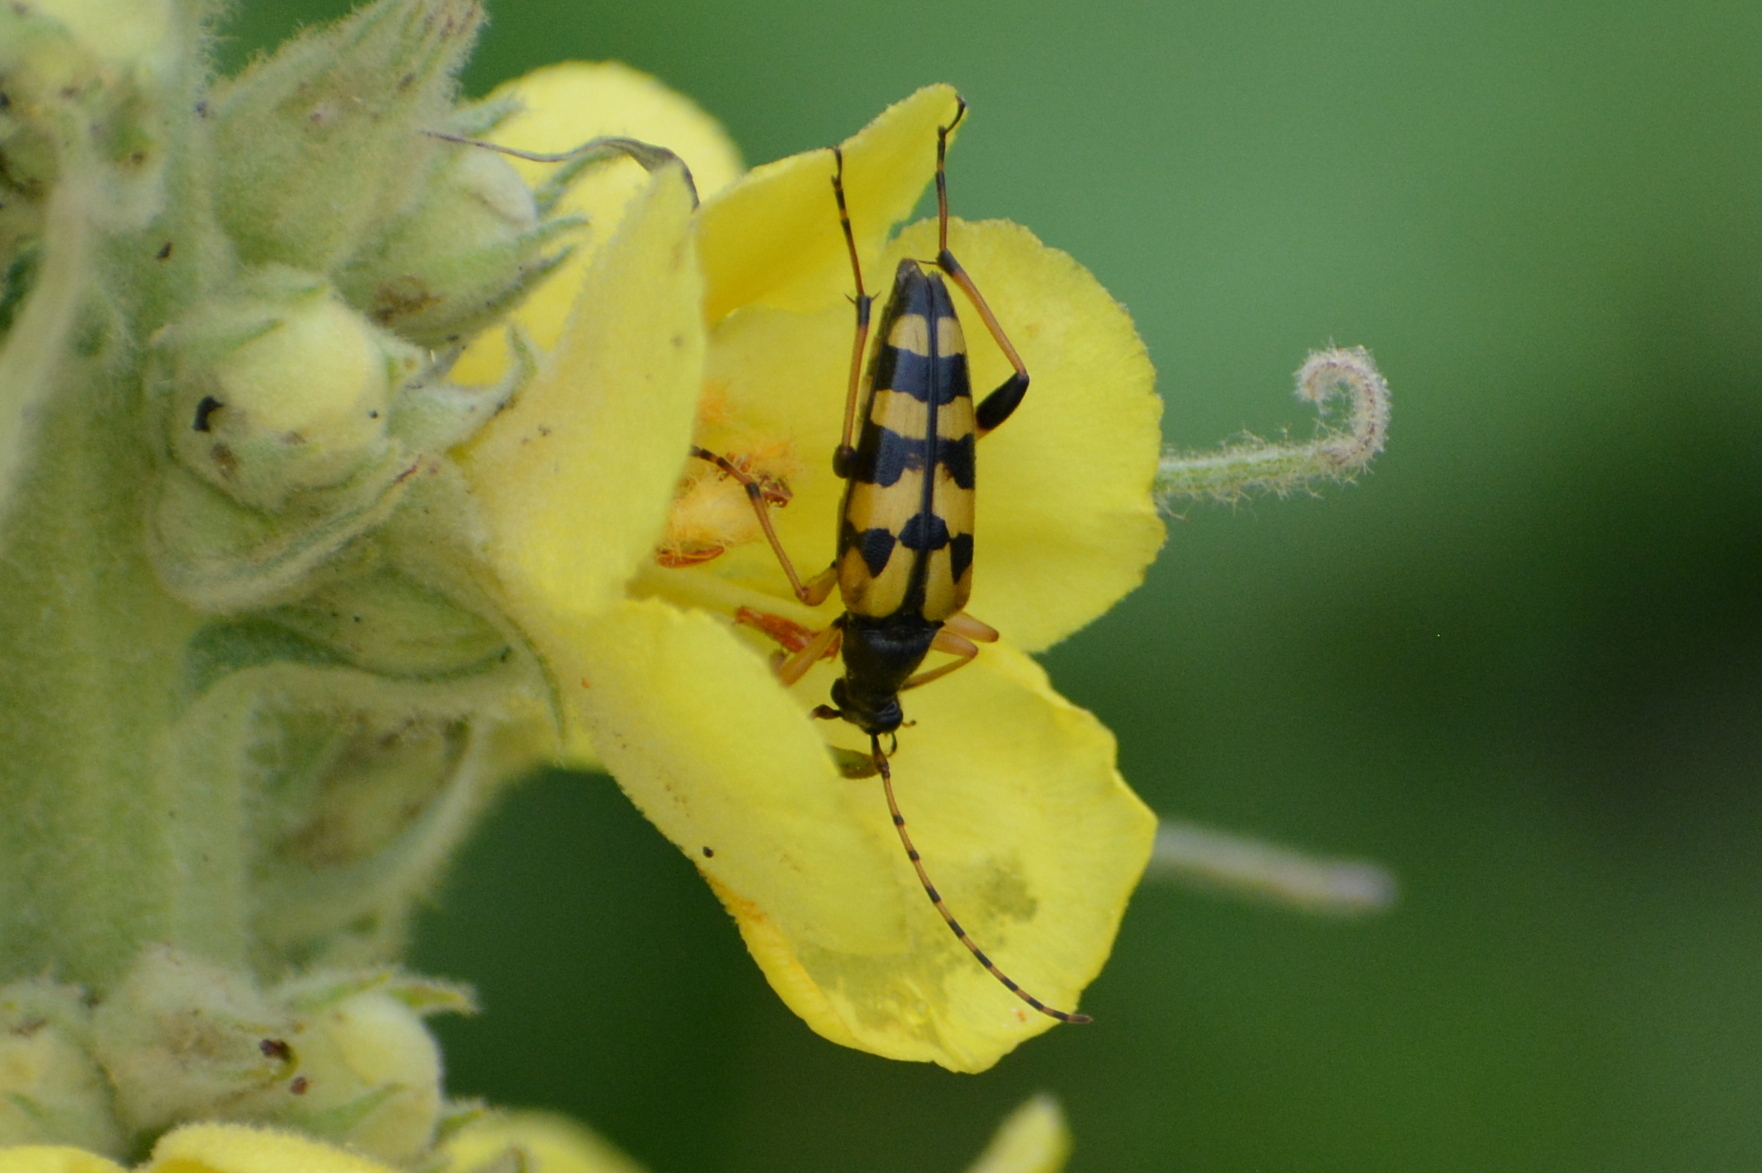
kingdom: Animalia
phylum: Arthropoda
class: Insecta
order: Coleoptera
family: Cerambycidae
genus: Rutpela
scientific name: Rutpela maculata
